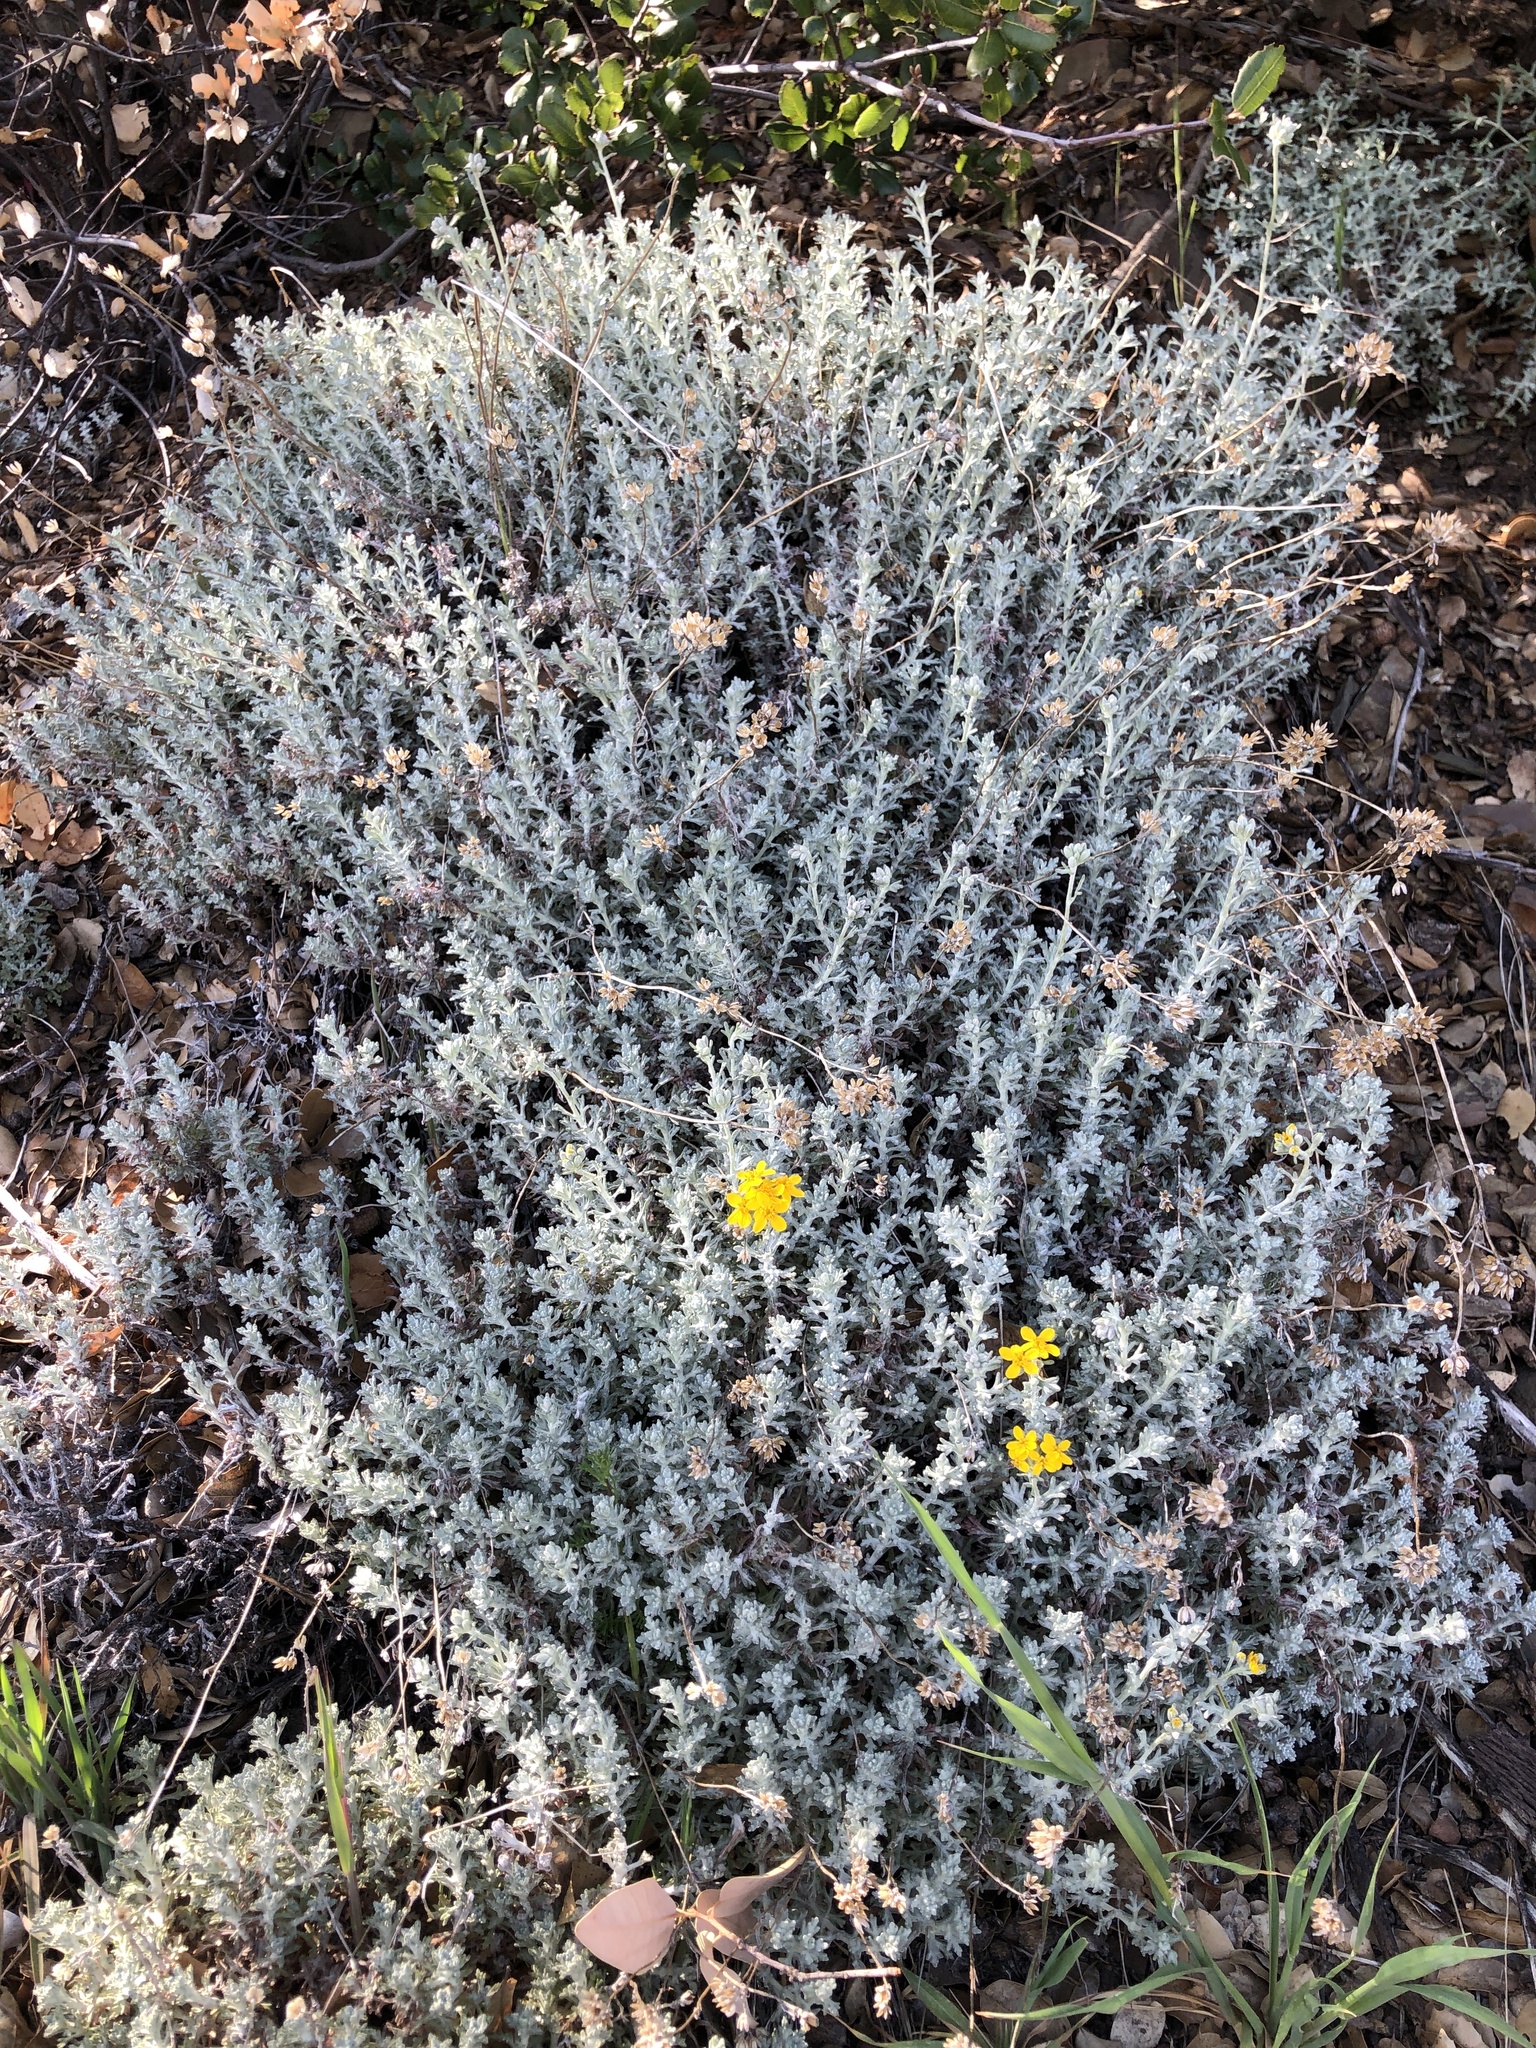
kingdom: Plantae
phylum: Tracheophyta
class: Magnoliopsida
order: Asterales
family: Asteraceae
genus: Eriophyllum
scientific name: Eriophyllum confertiflorum
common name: Golden-yarrow
